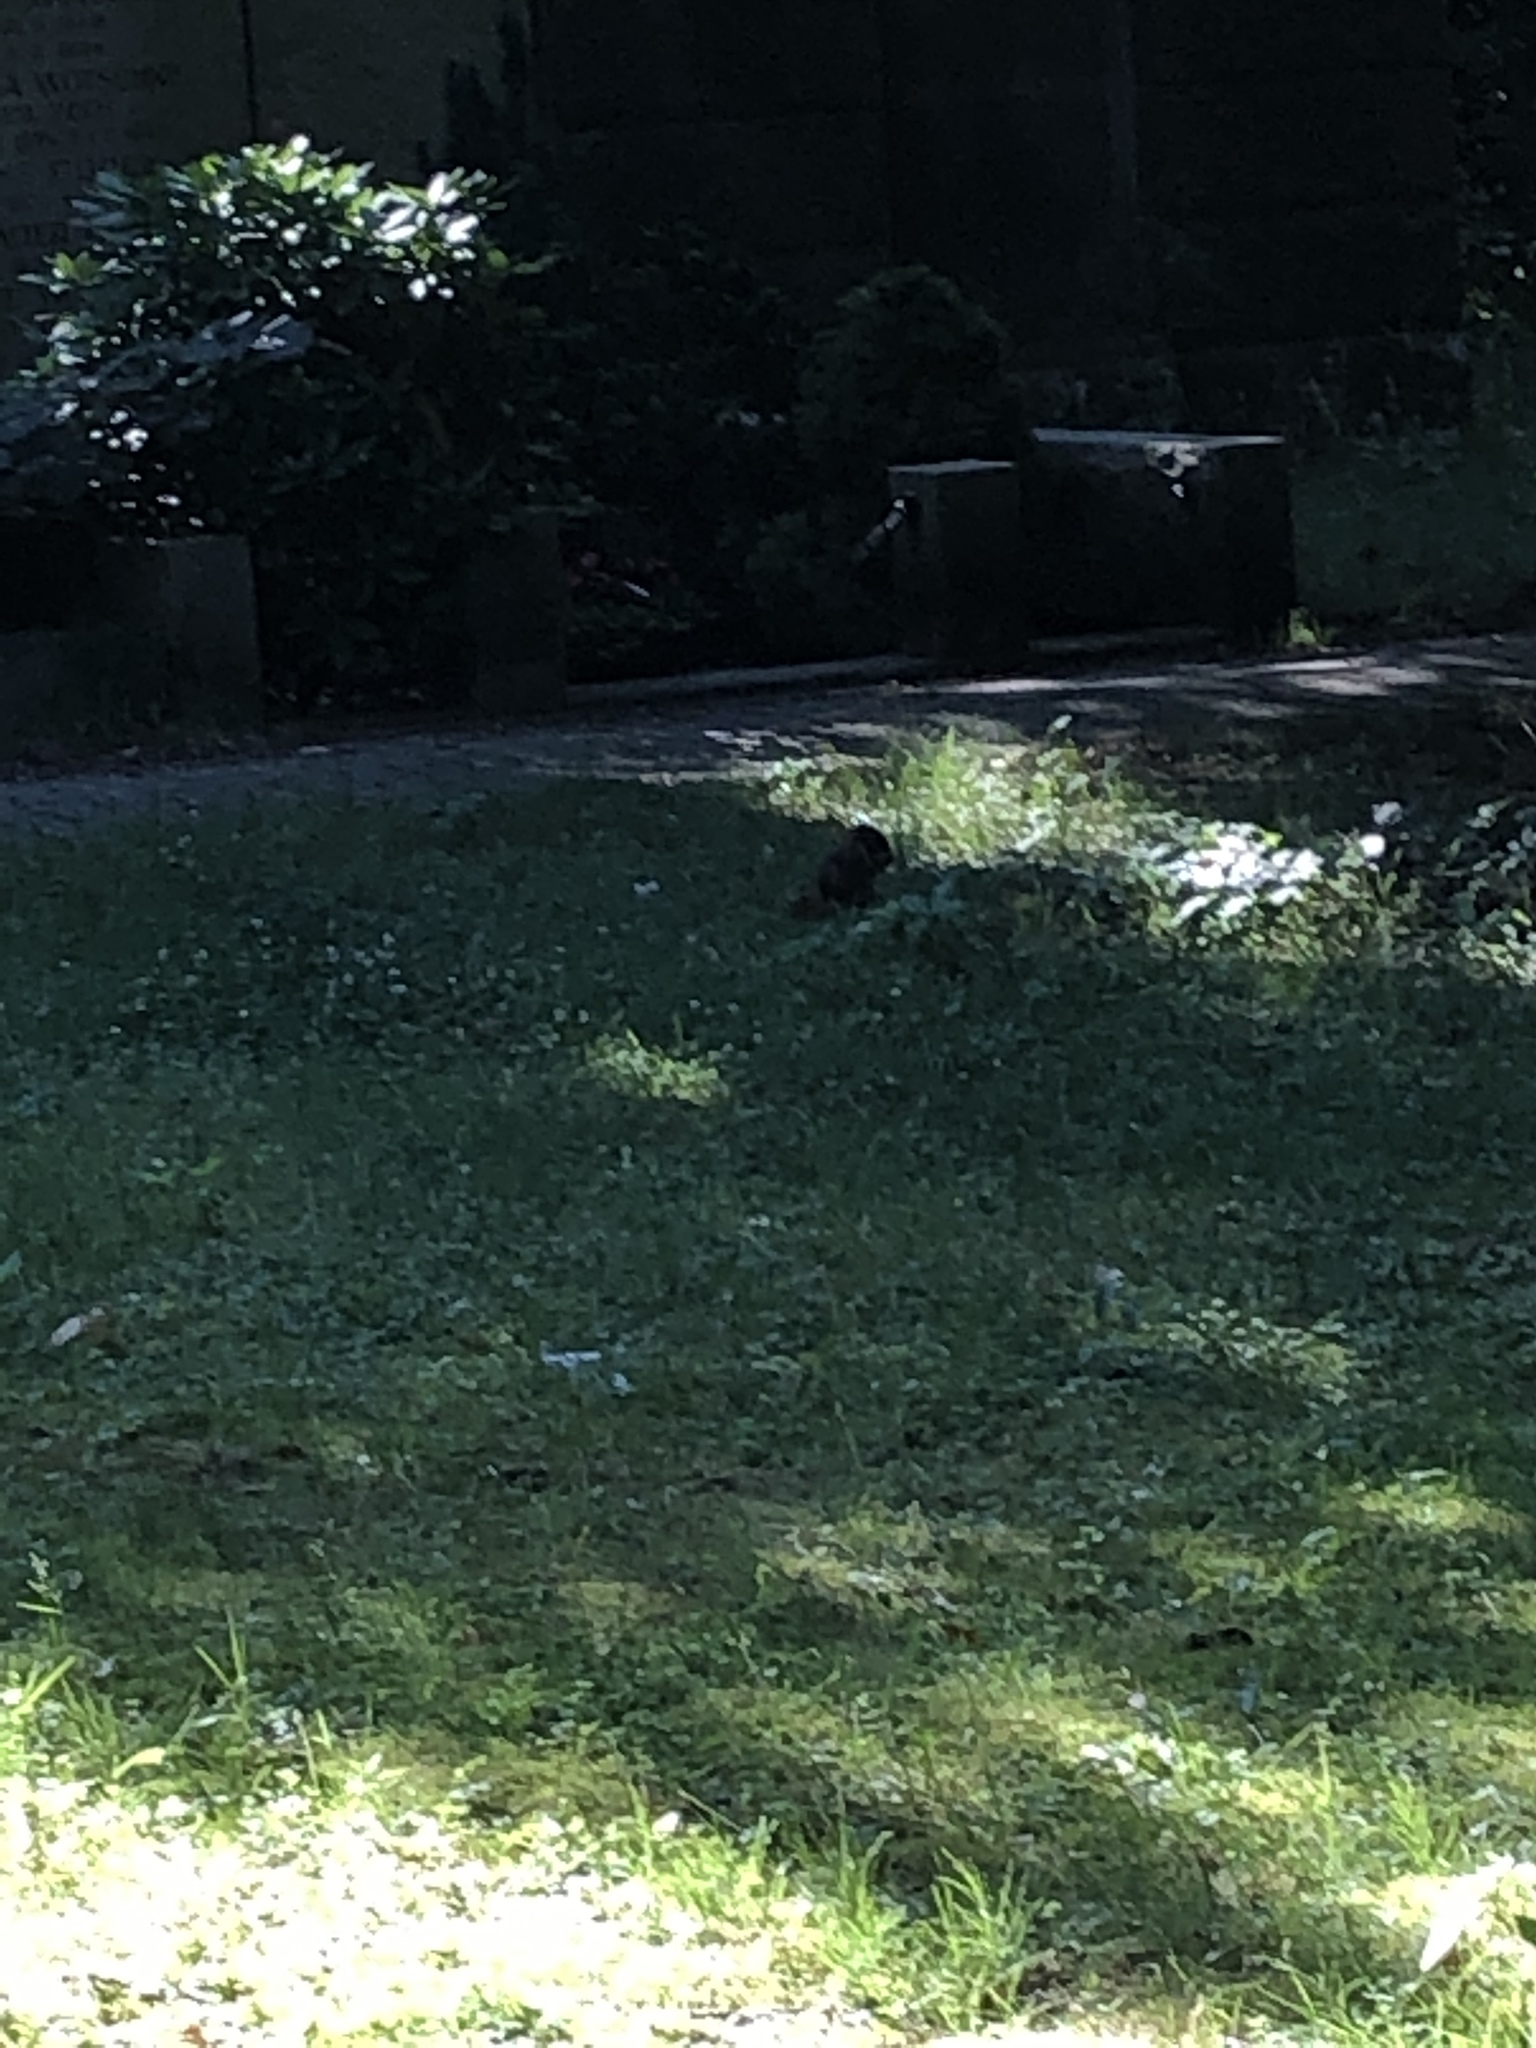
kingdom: Animalia
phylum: Chordata
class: Mammalia
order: Rodentia
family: Sciuridae
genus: Sciurus
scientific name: Sciurus vulgaris
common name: Eurasian red squirrel
